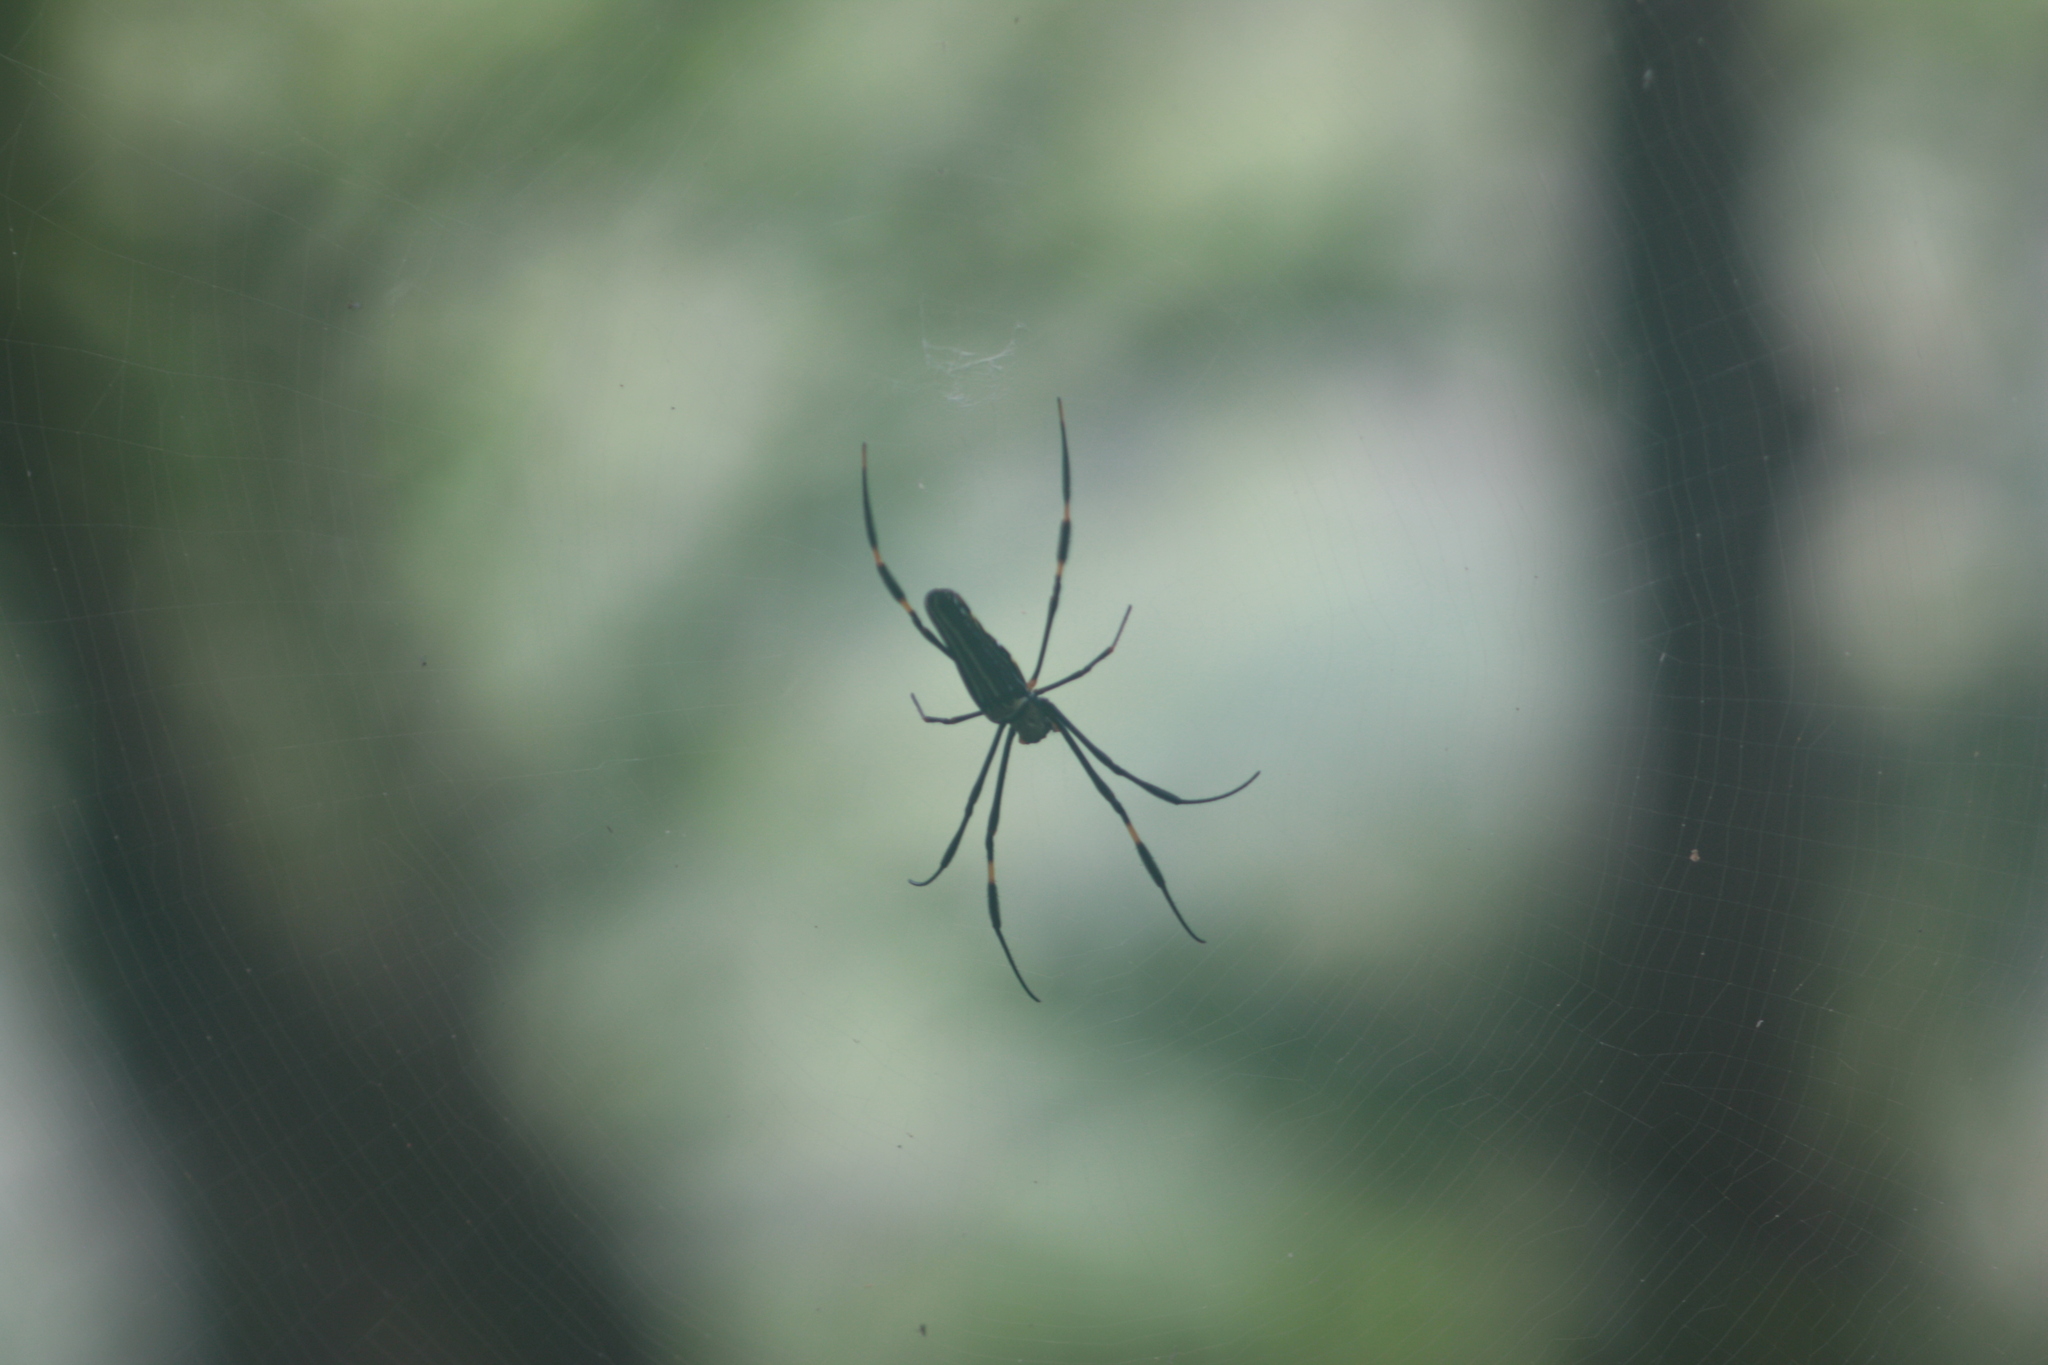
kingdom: Animalia
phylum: Arthropoda
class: Arachnida
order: Araneae
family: Araneidae
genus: Nephila
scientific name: Nephila pilipes
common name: Giant golden orb weaver
